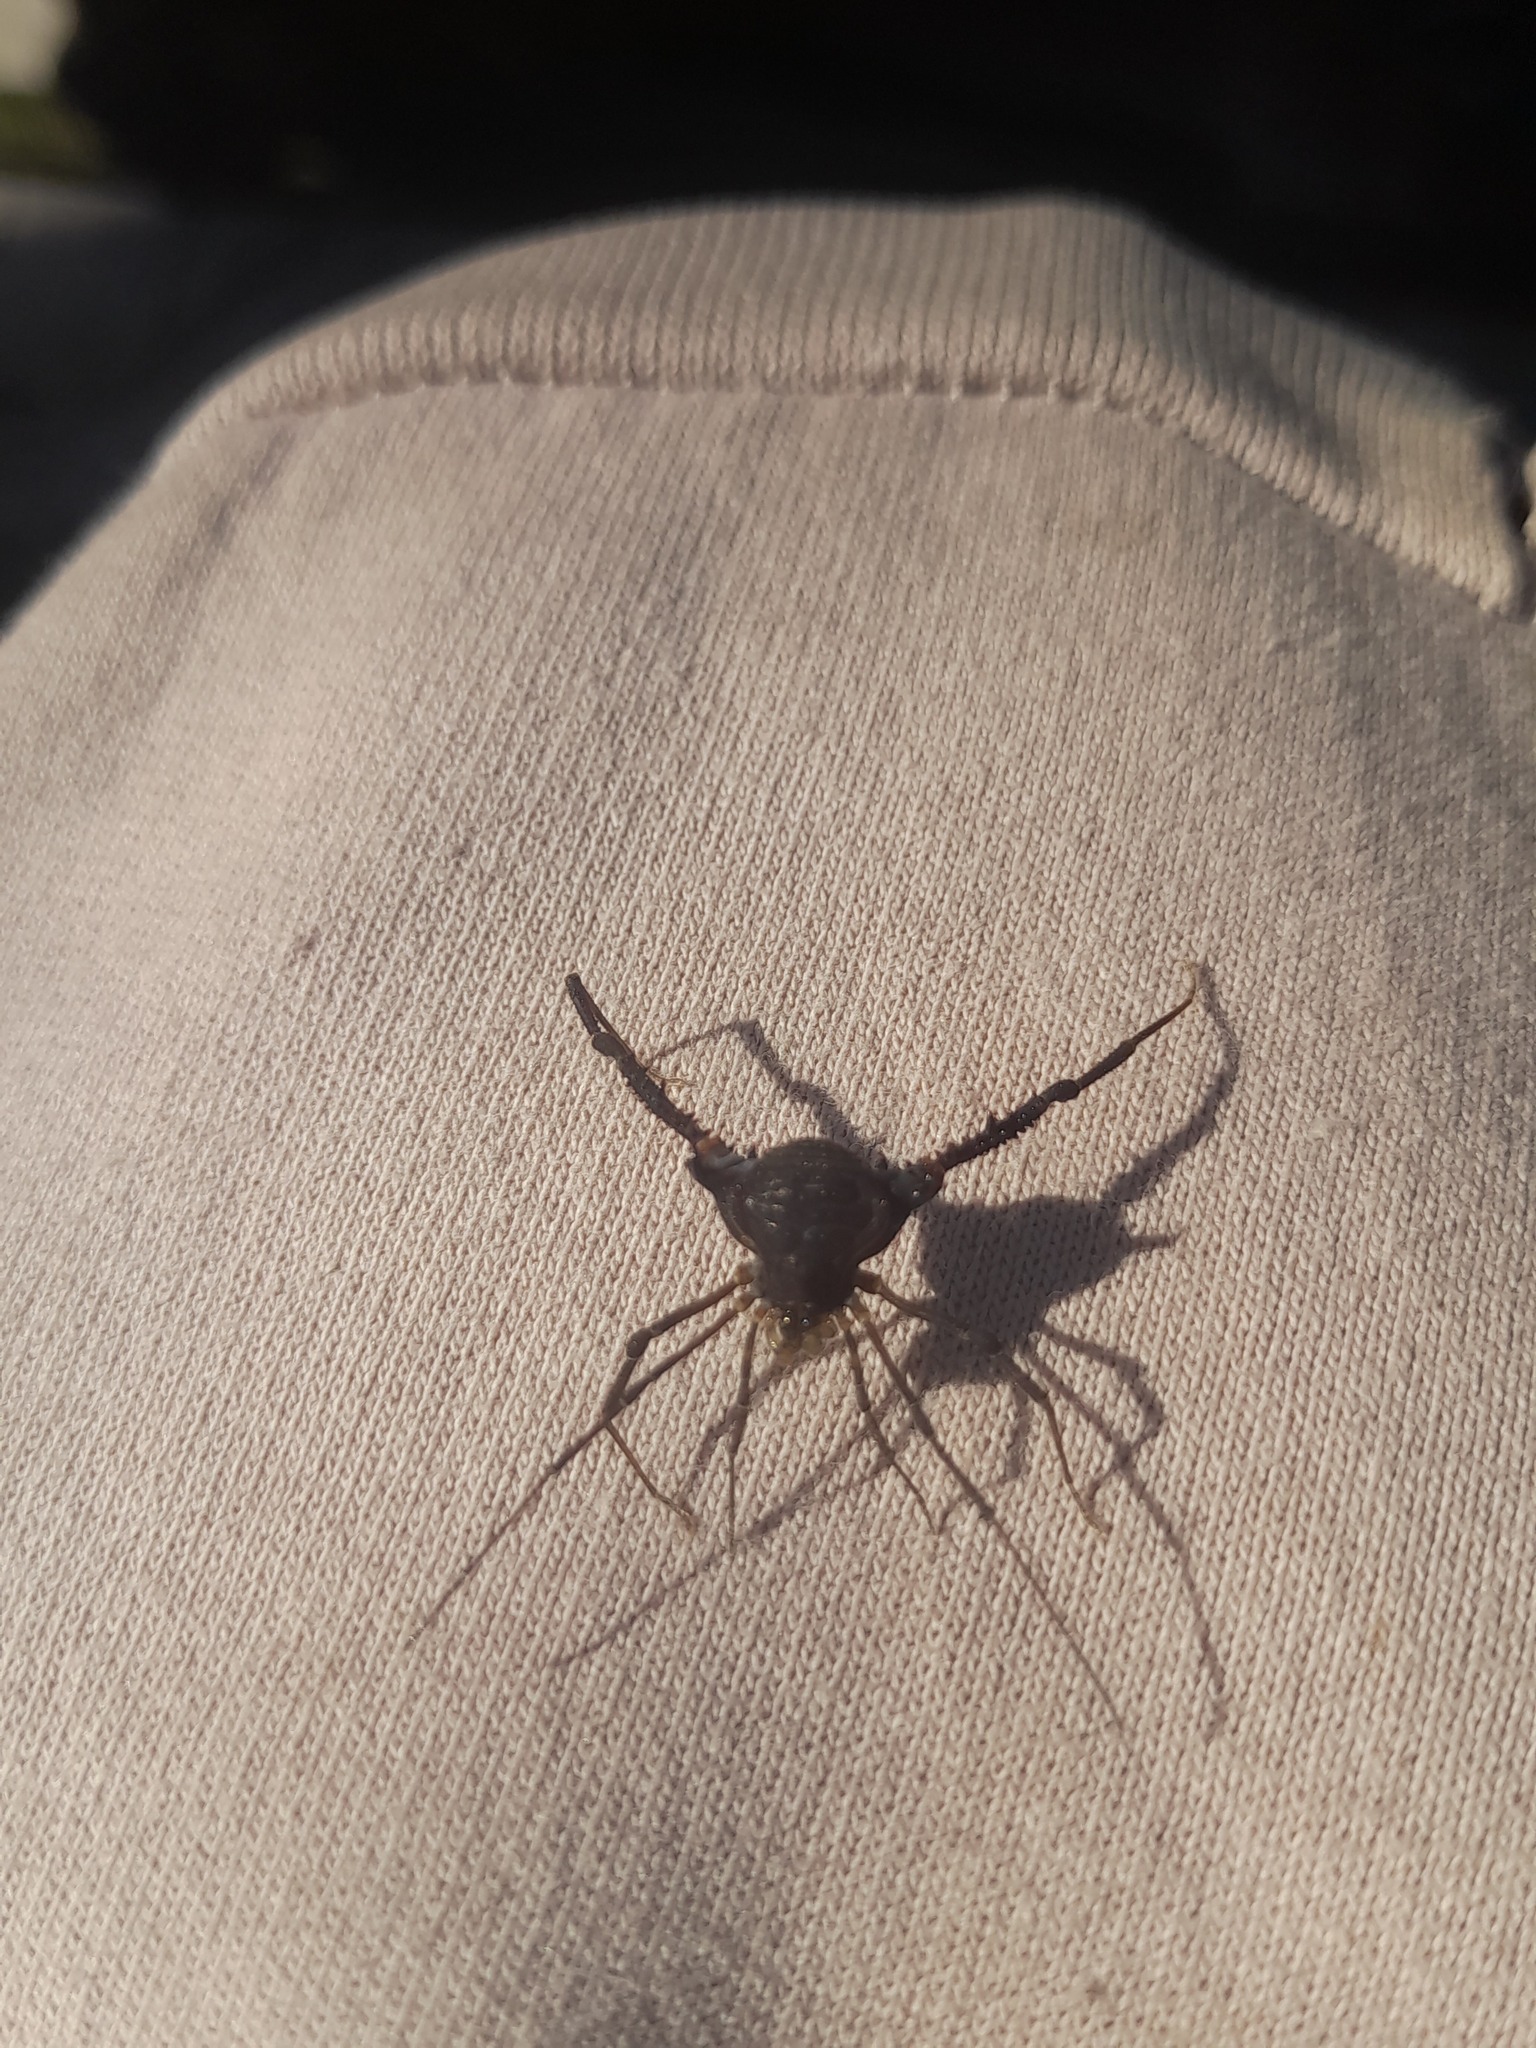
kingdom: Animalia
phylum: Arthropoda
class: Arachnida
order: Opiliones
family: Gonyleptidae
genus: Opisthoplatus
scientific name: Opisthoplatus prospicuus
